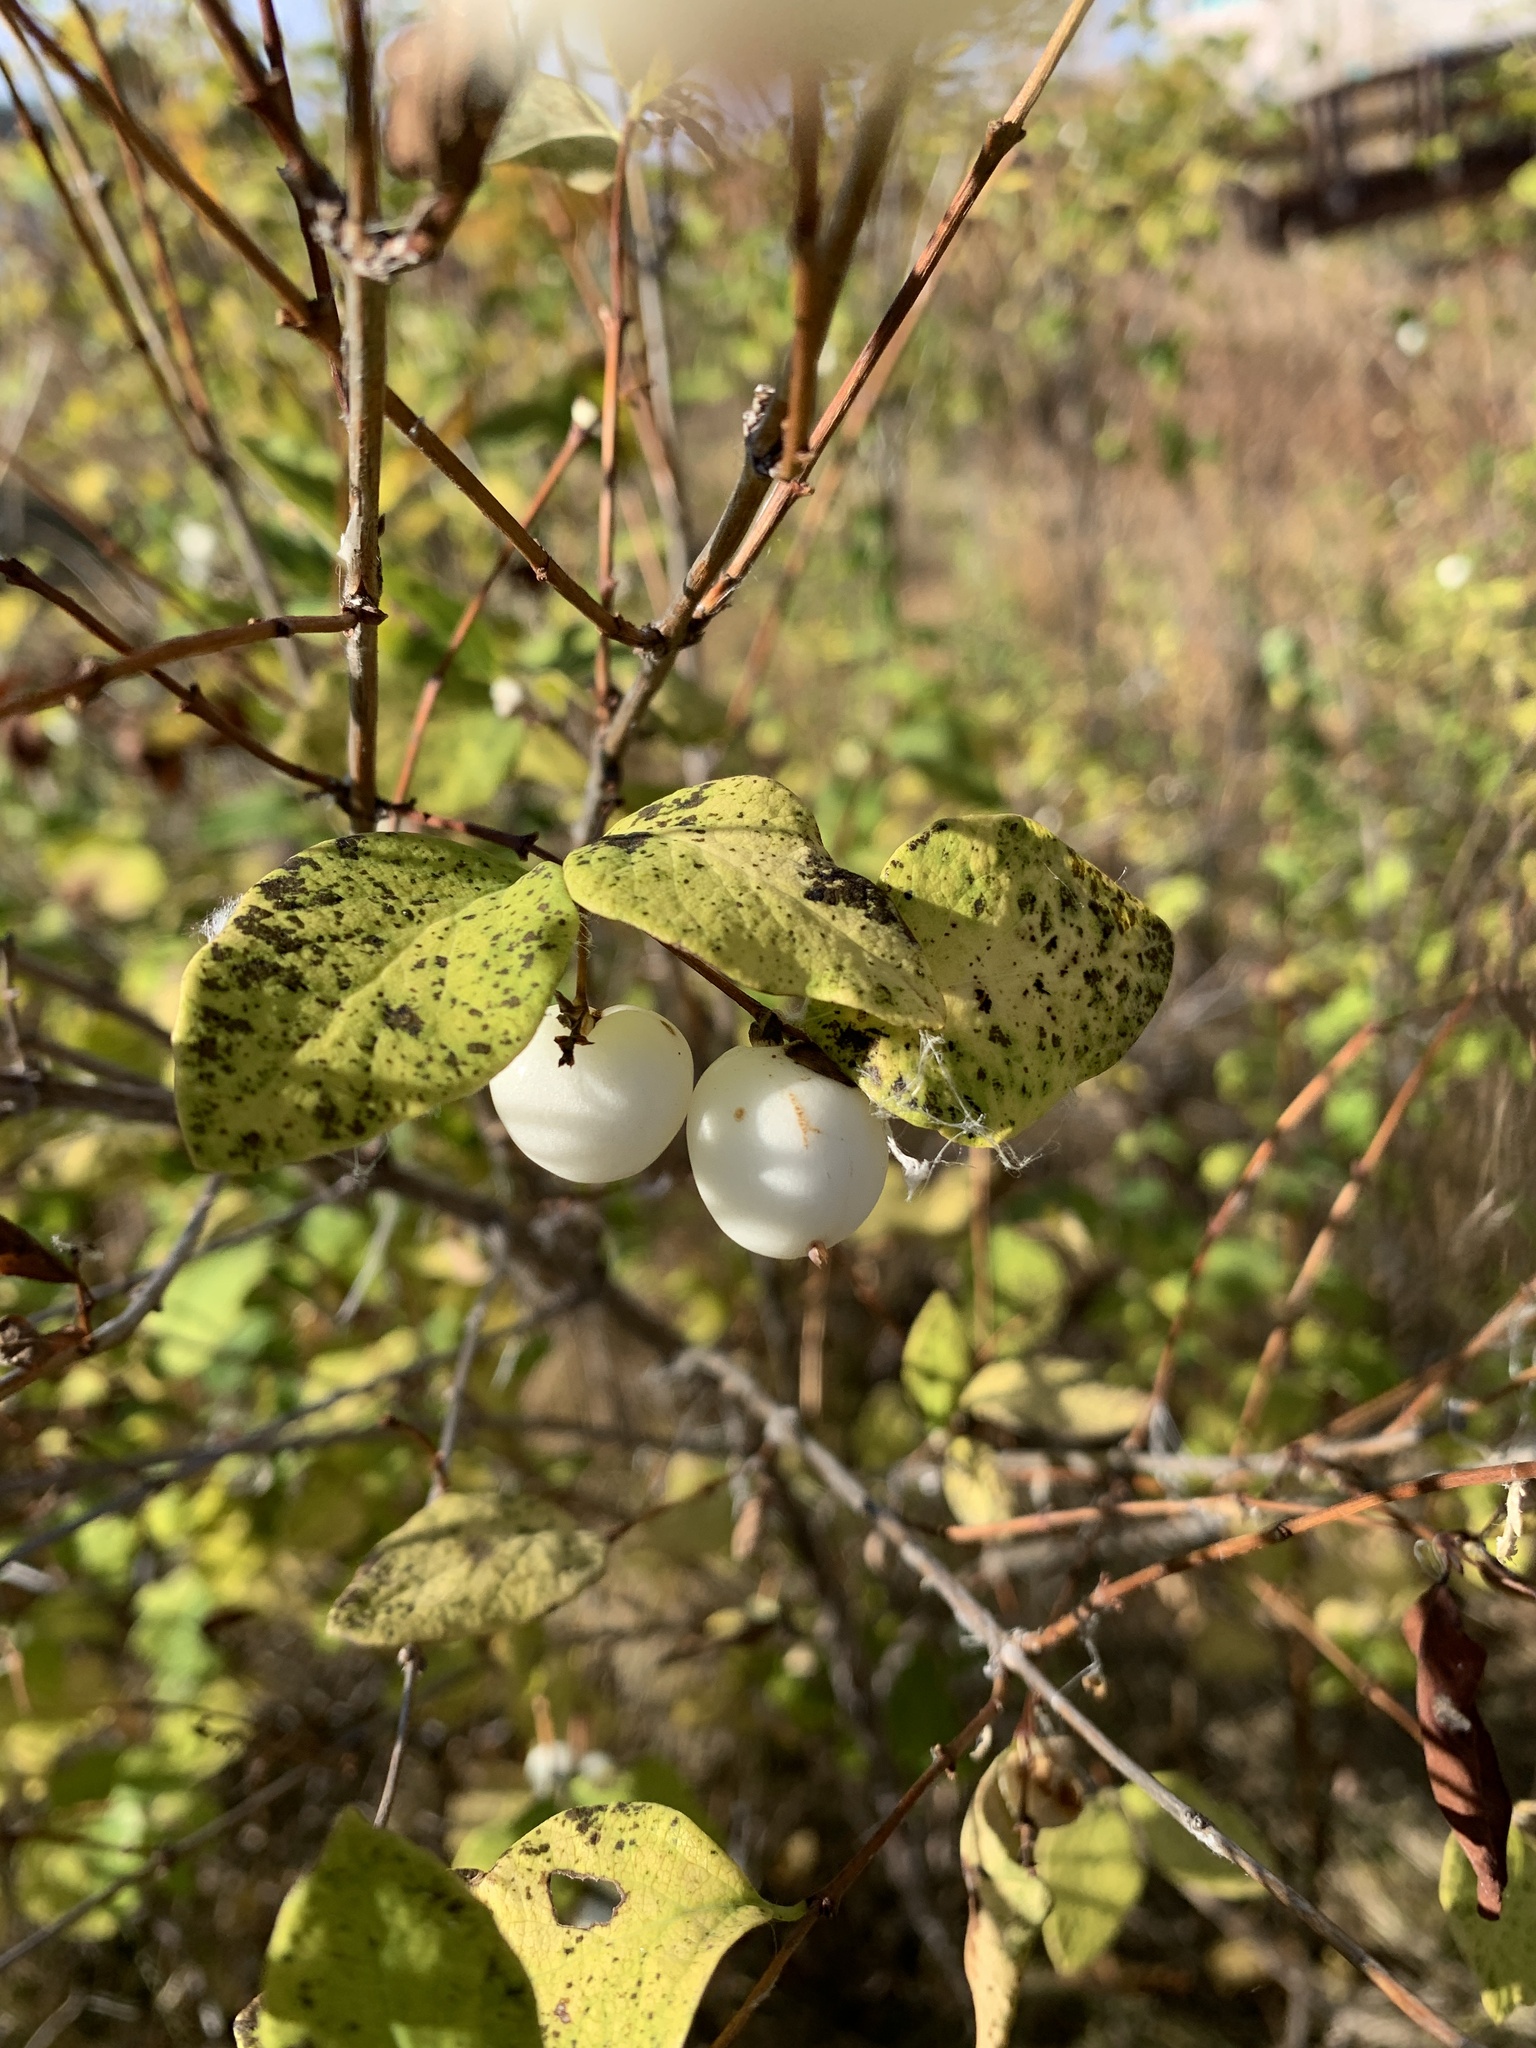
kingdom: Plantae
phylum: Tracheophyta
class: Magnoliopsida
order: Dipsacales
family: Caprifoliaceae
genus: Symphoricarpos
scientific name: Symphoricarpos albus
